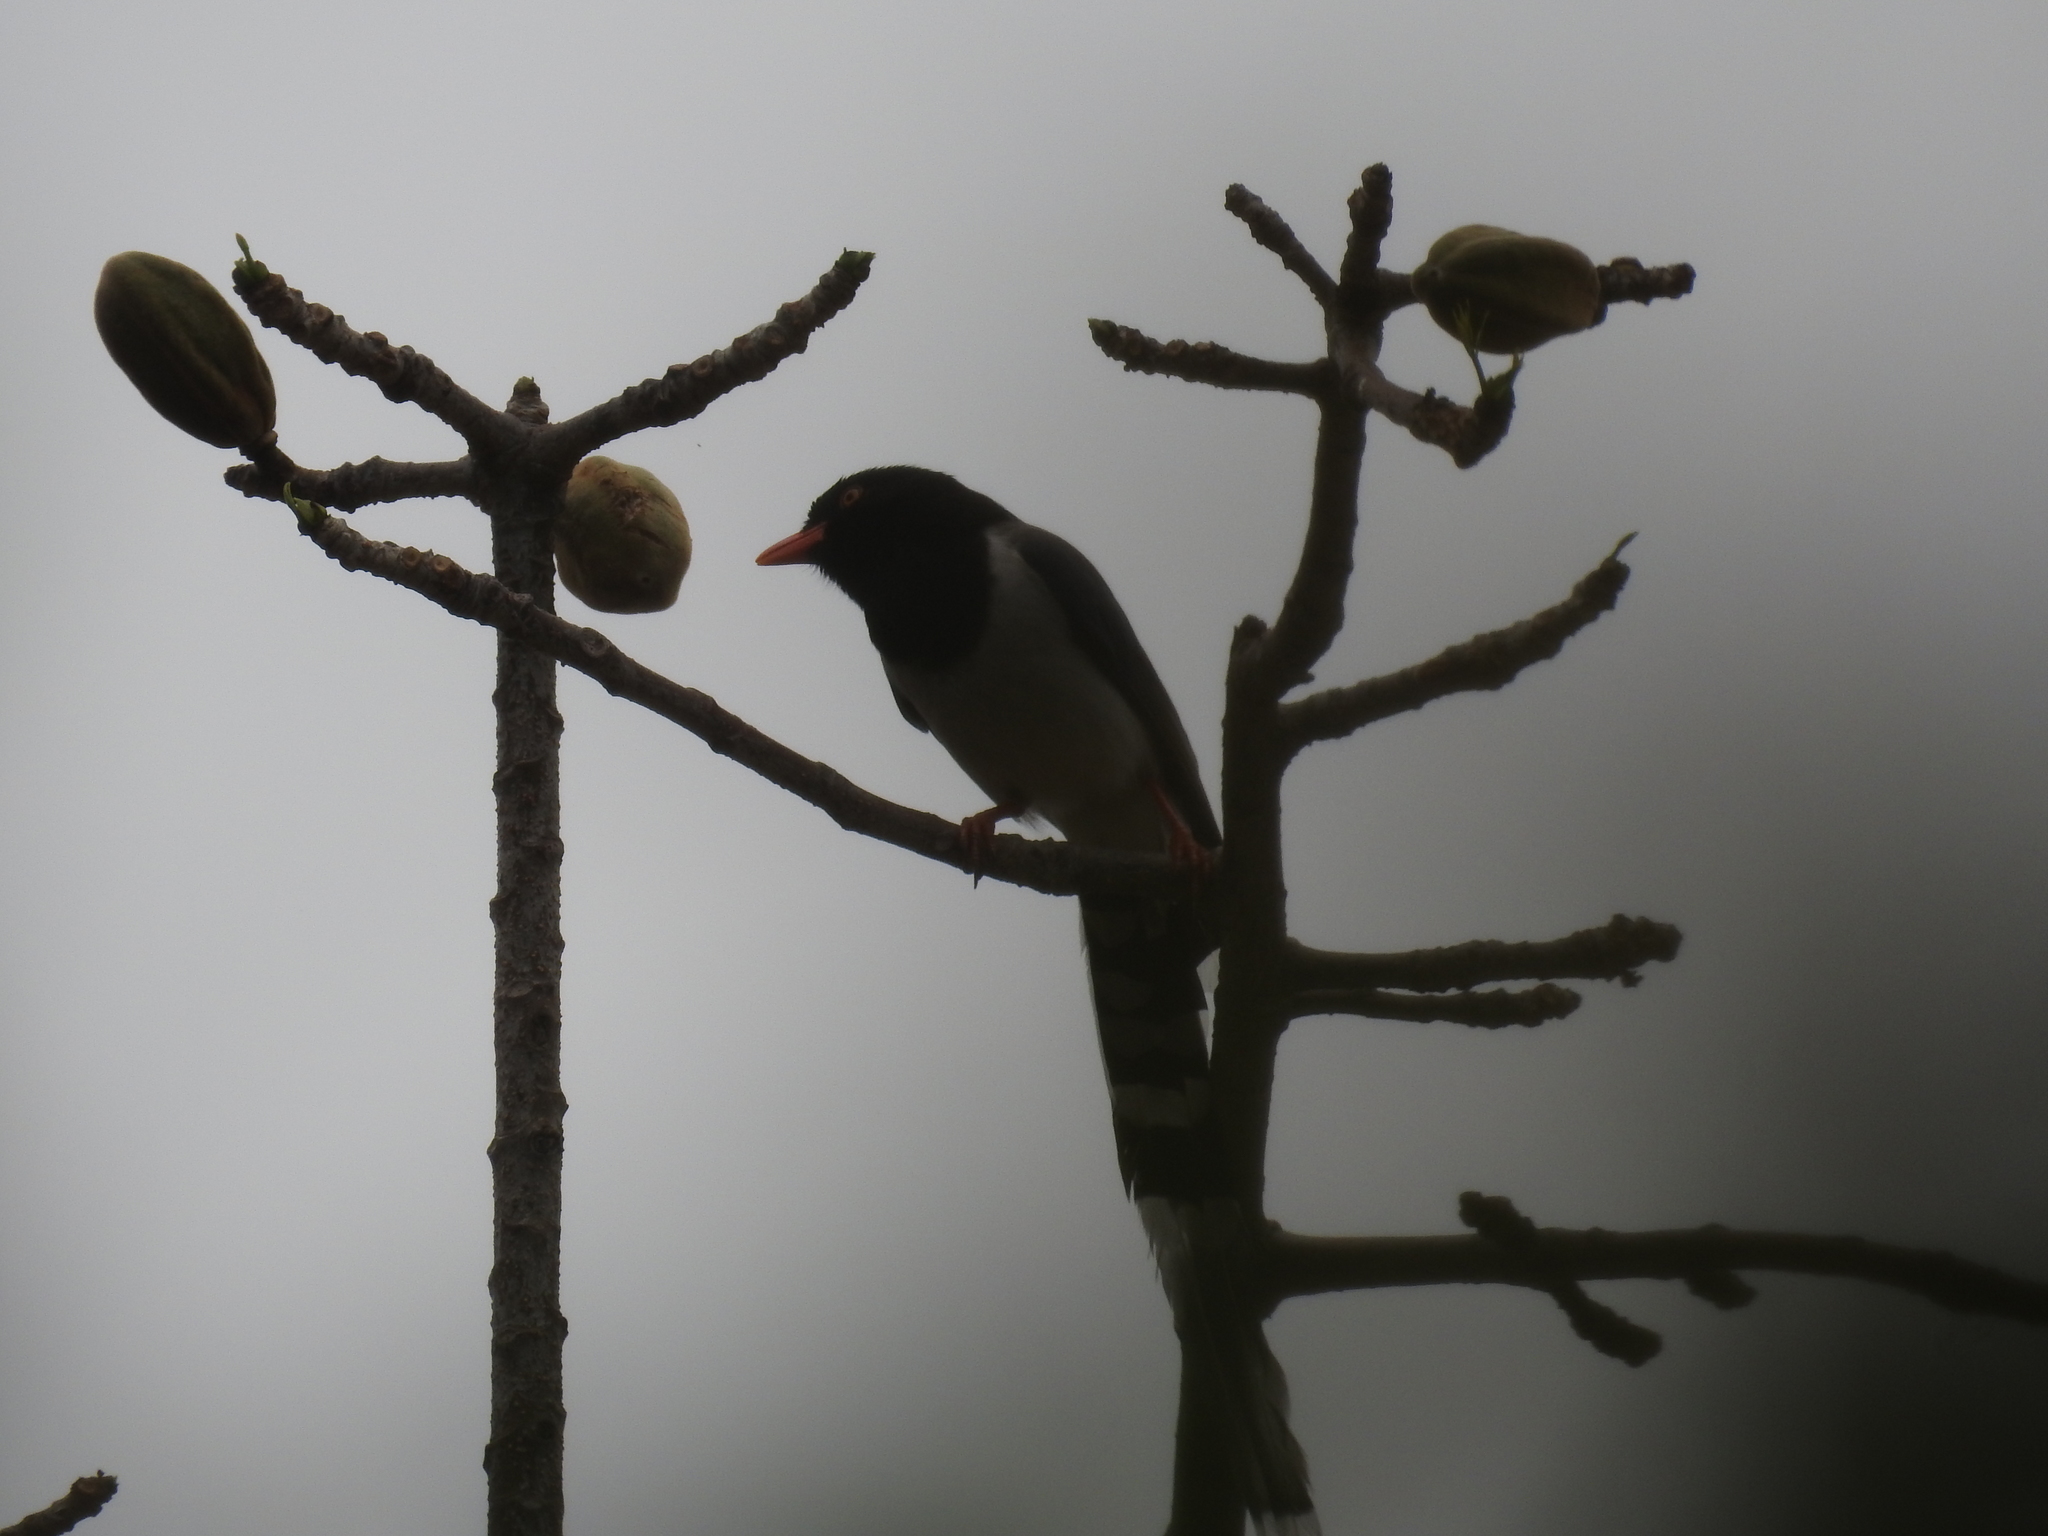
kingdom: Animalia
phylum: Chordata
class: Aves
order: Passeriformes
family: Corvidae
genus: Urocissa
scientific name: Urocissa erythroryncha
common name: Red-billed blue magpie
